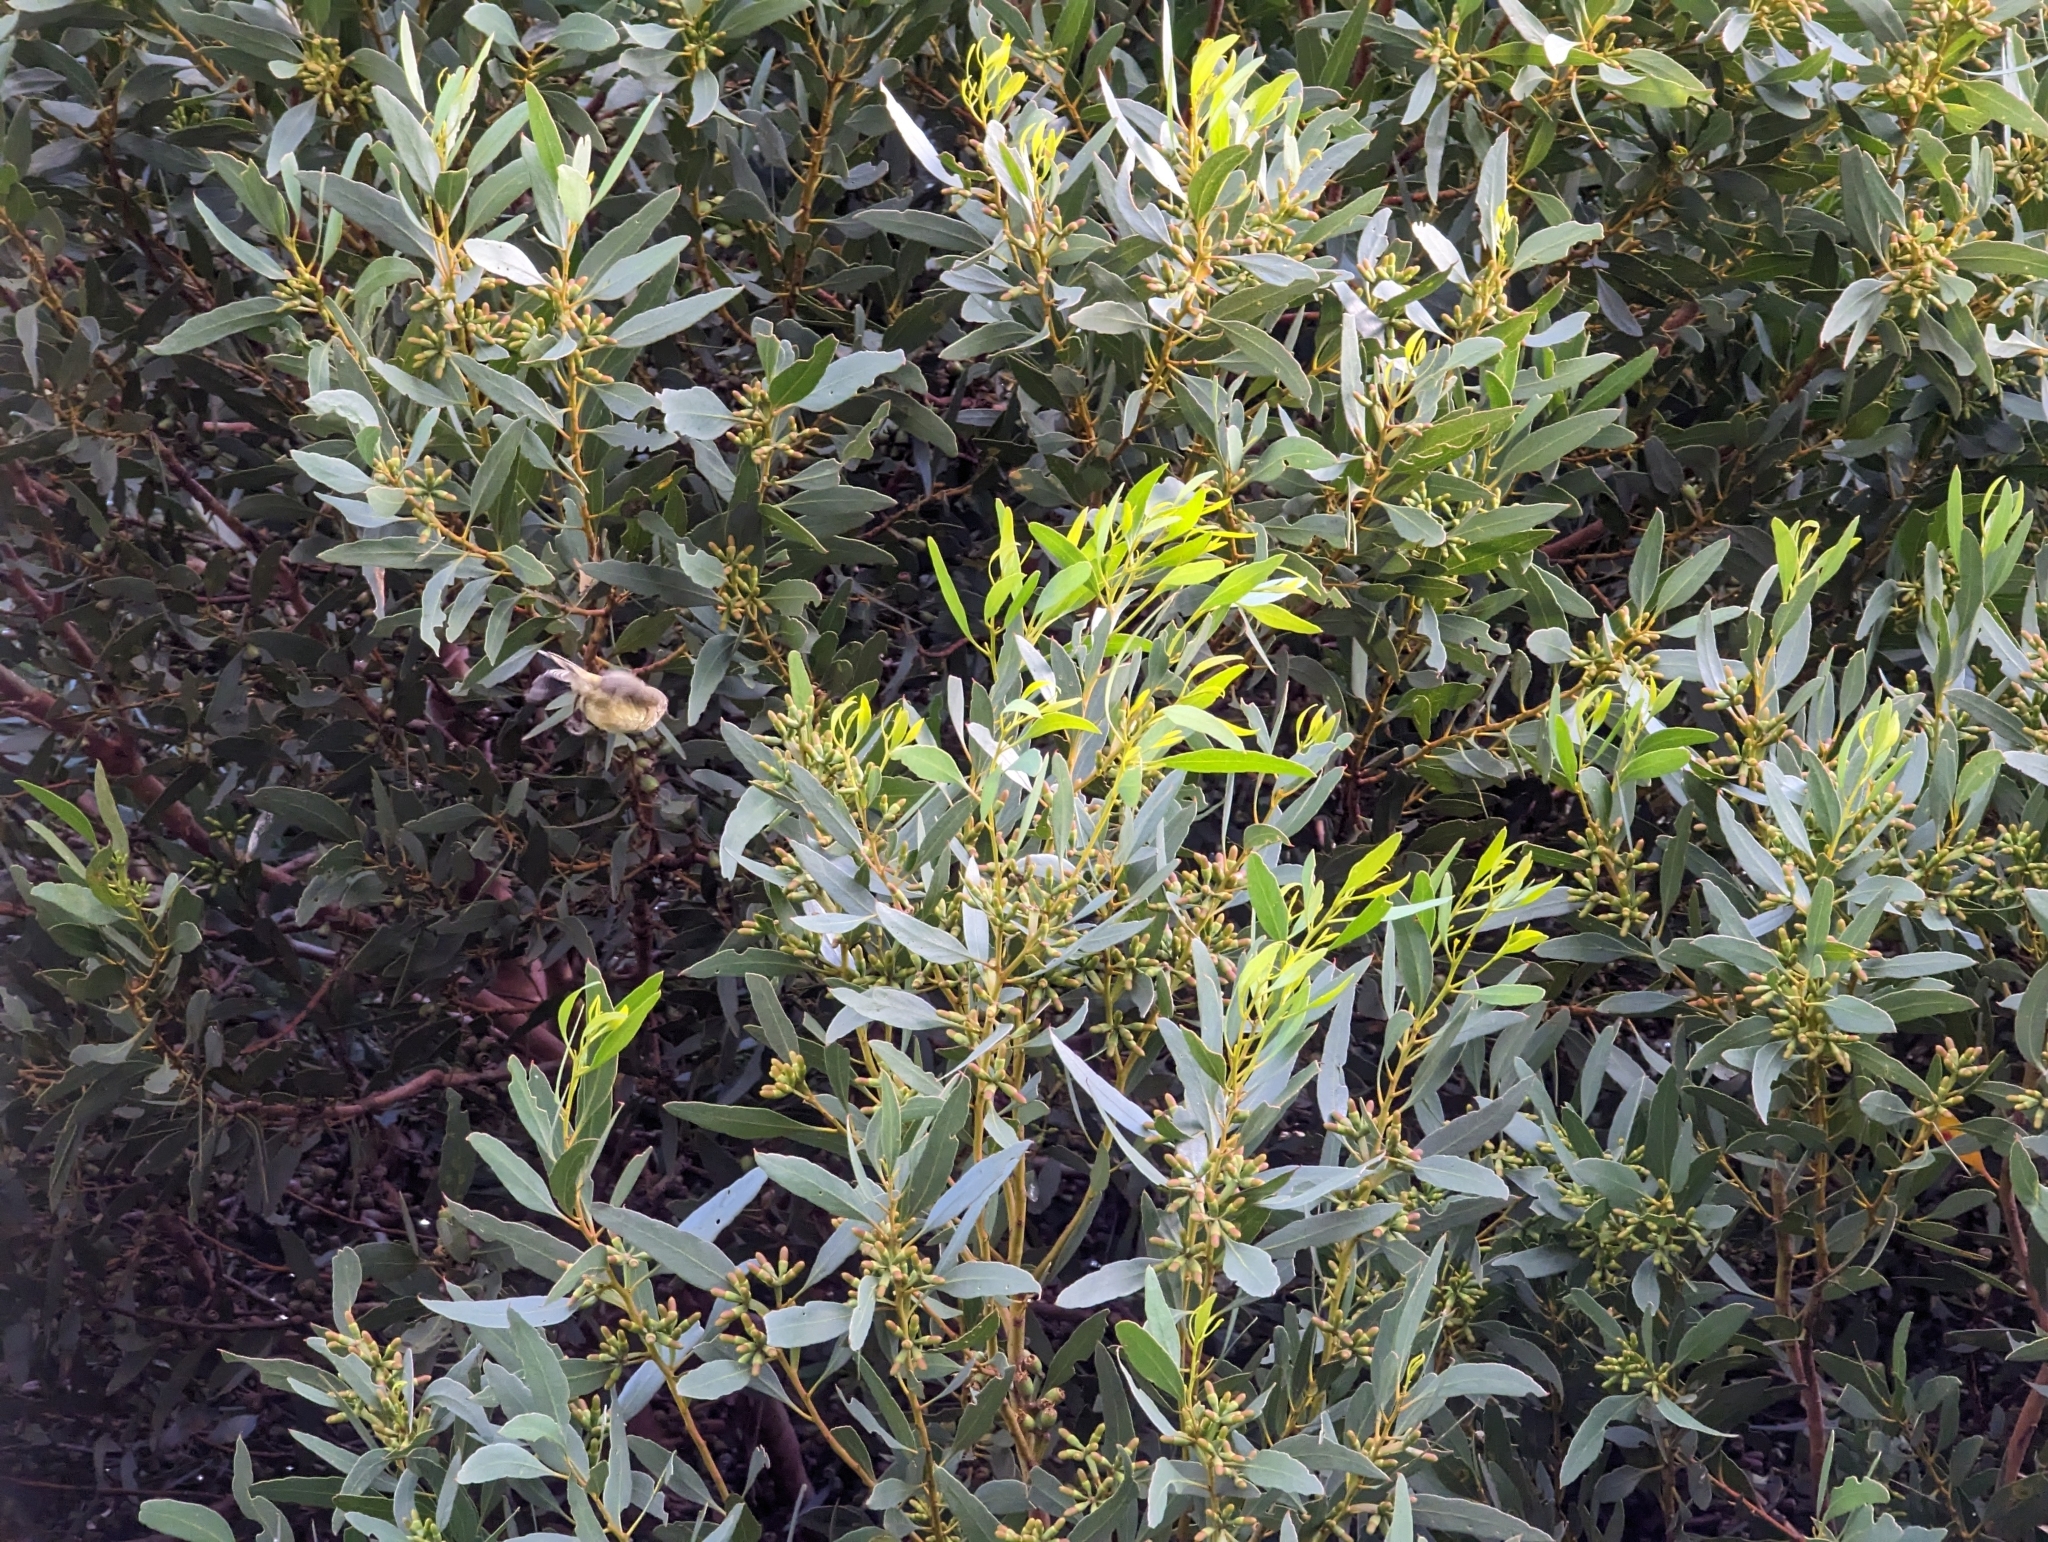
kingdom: Animalia
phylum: Chordata
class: Aves
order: Passeriformes
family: Acanthizidae
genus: Smicrornis
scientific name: Smicrornis brevirostris
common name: Weebill
